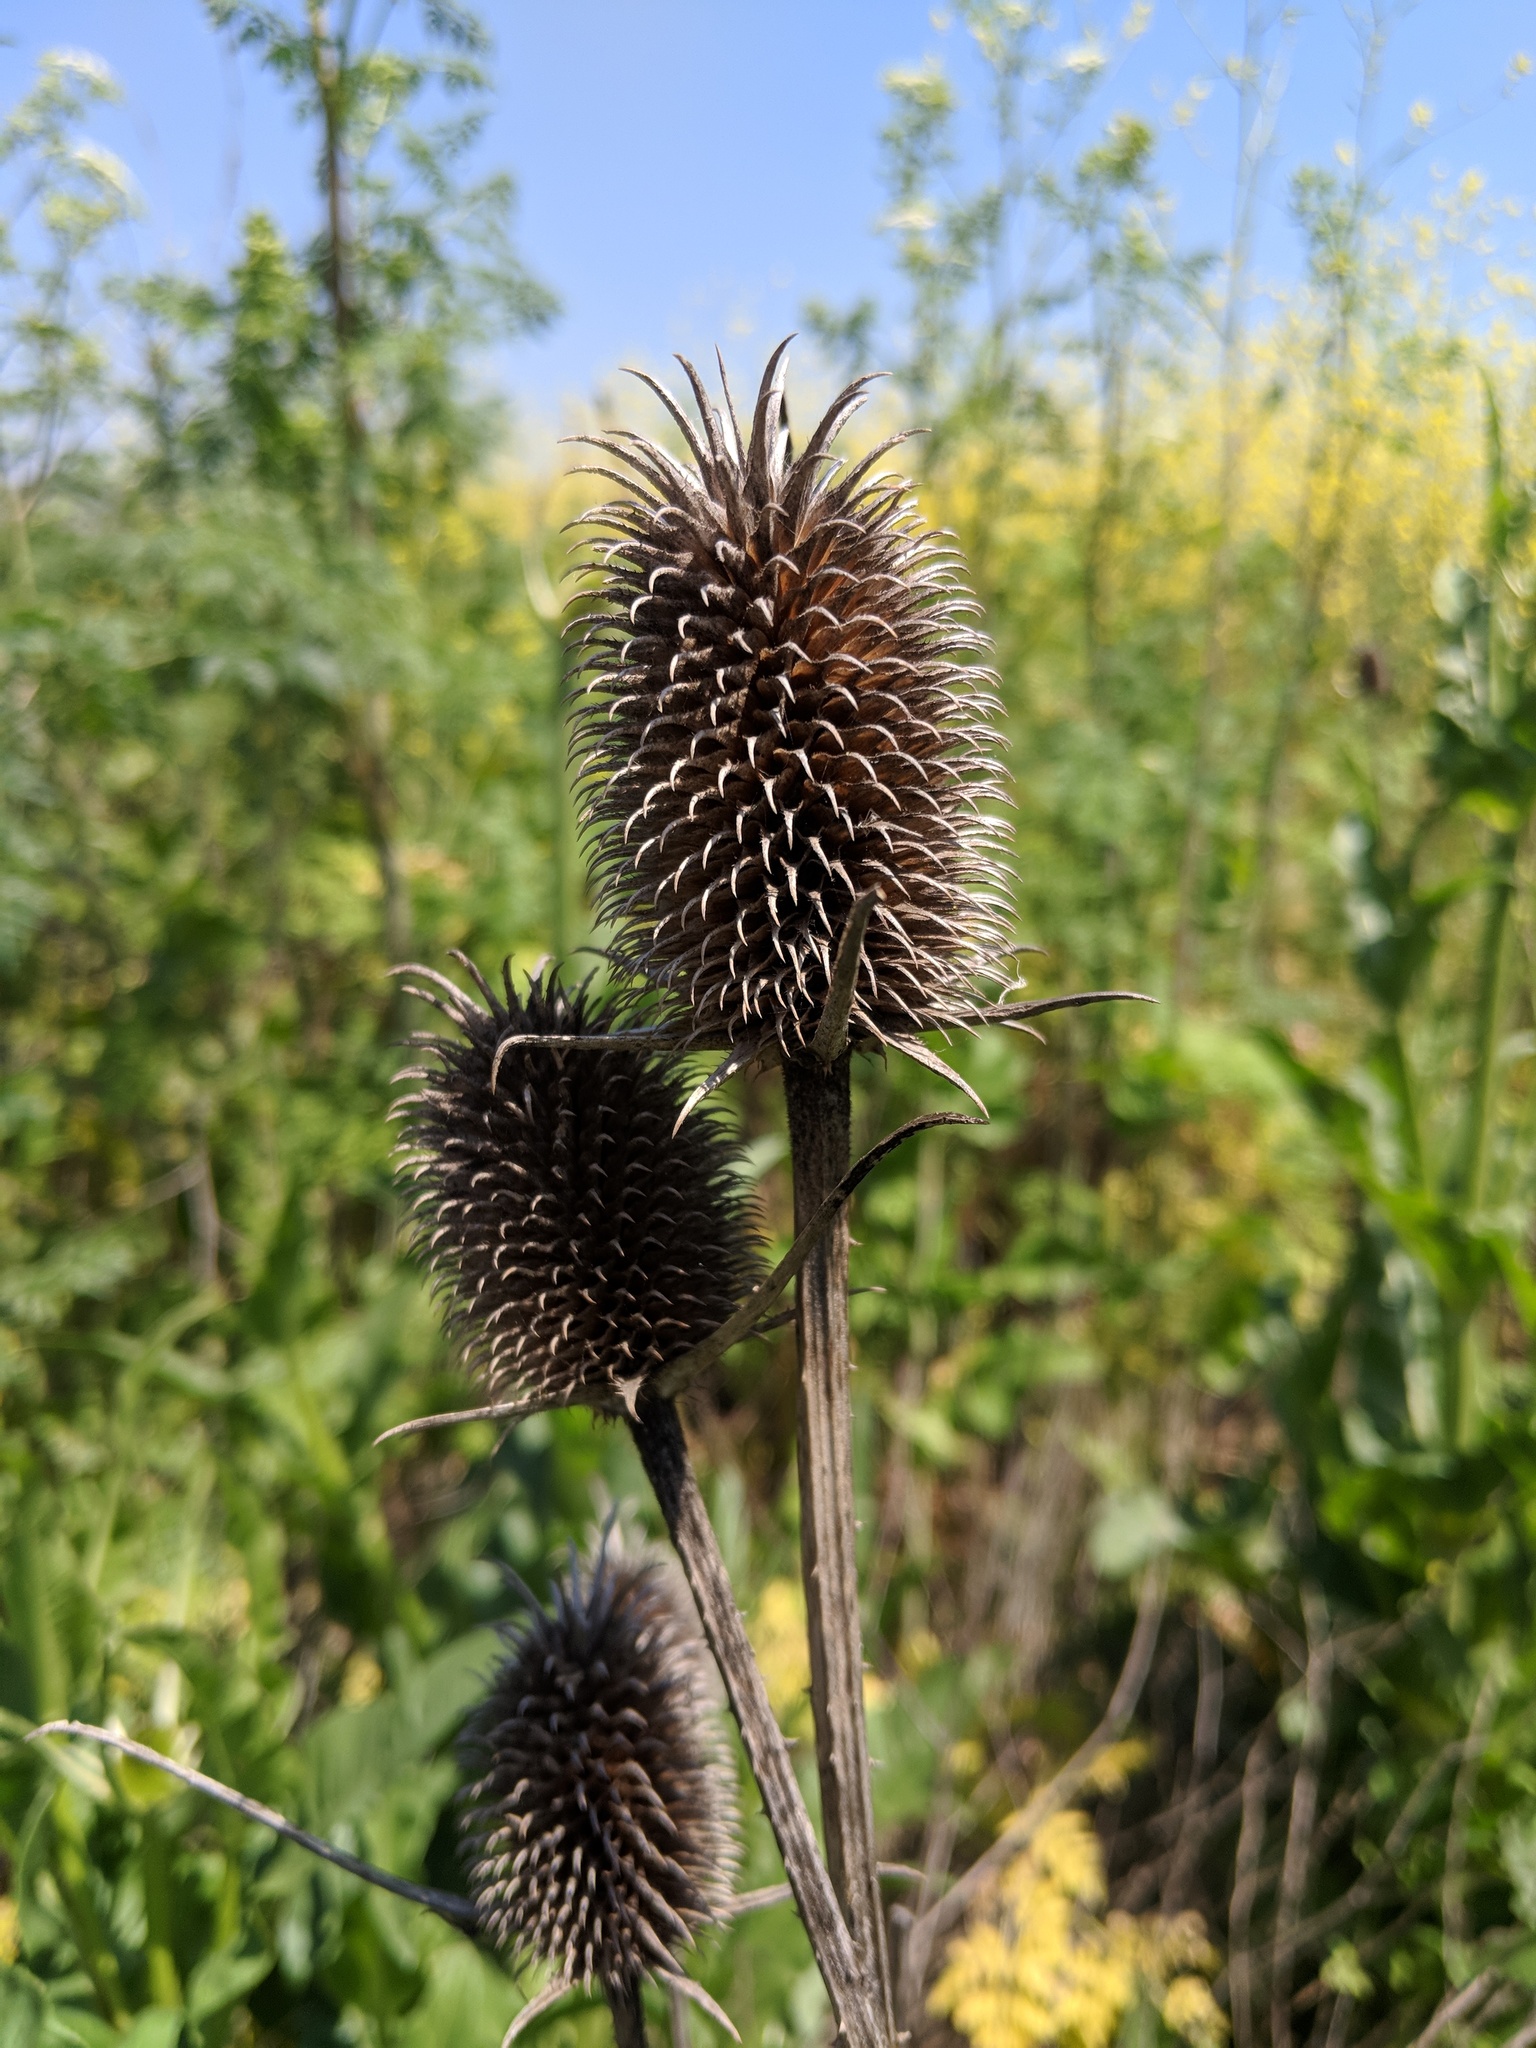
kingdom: Plantae
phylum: Tracheophyta
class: Magnoliopsida
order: Dipsacales
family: Caprifoliaceae
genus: Dipsacus
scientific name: Dipsacus sativus
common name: Fuller's teasel
